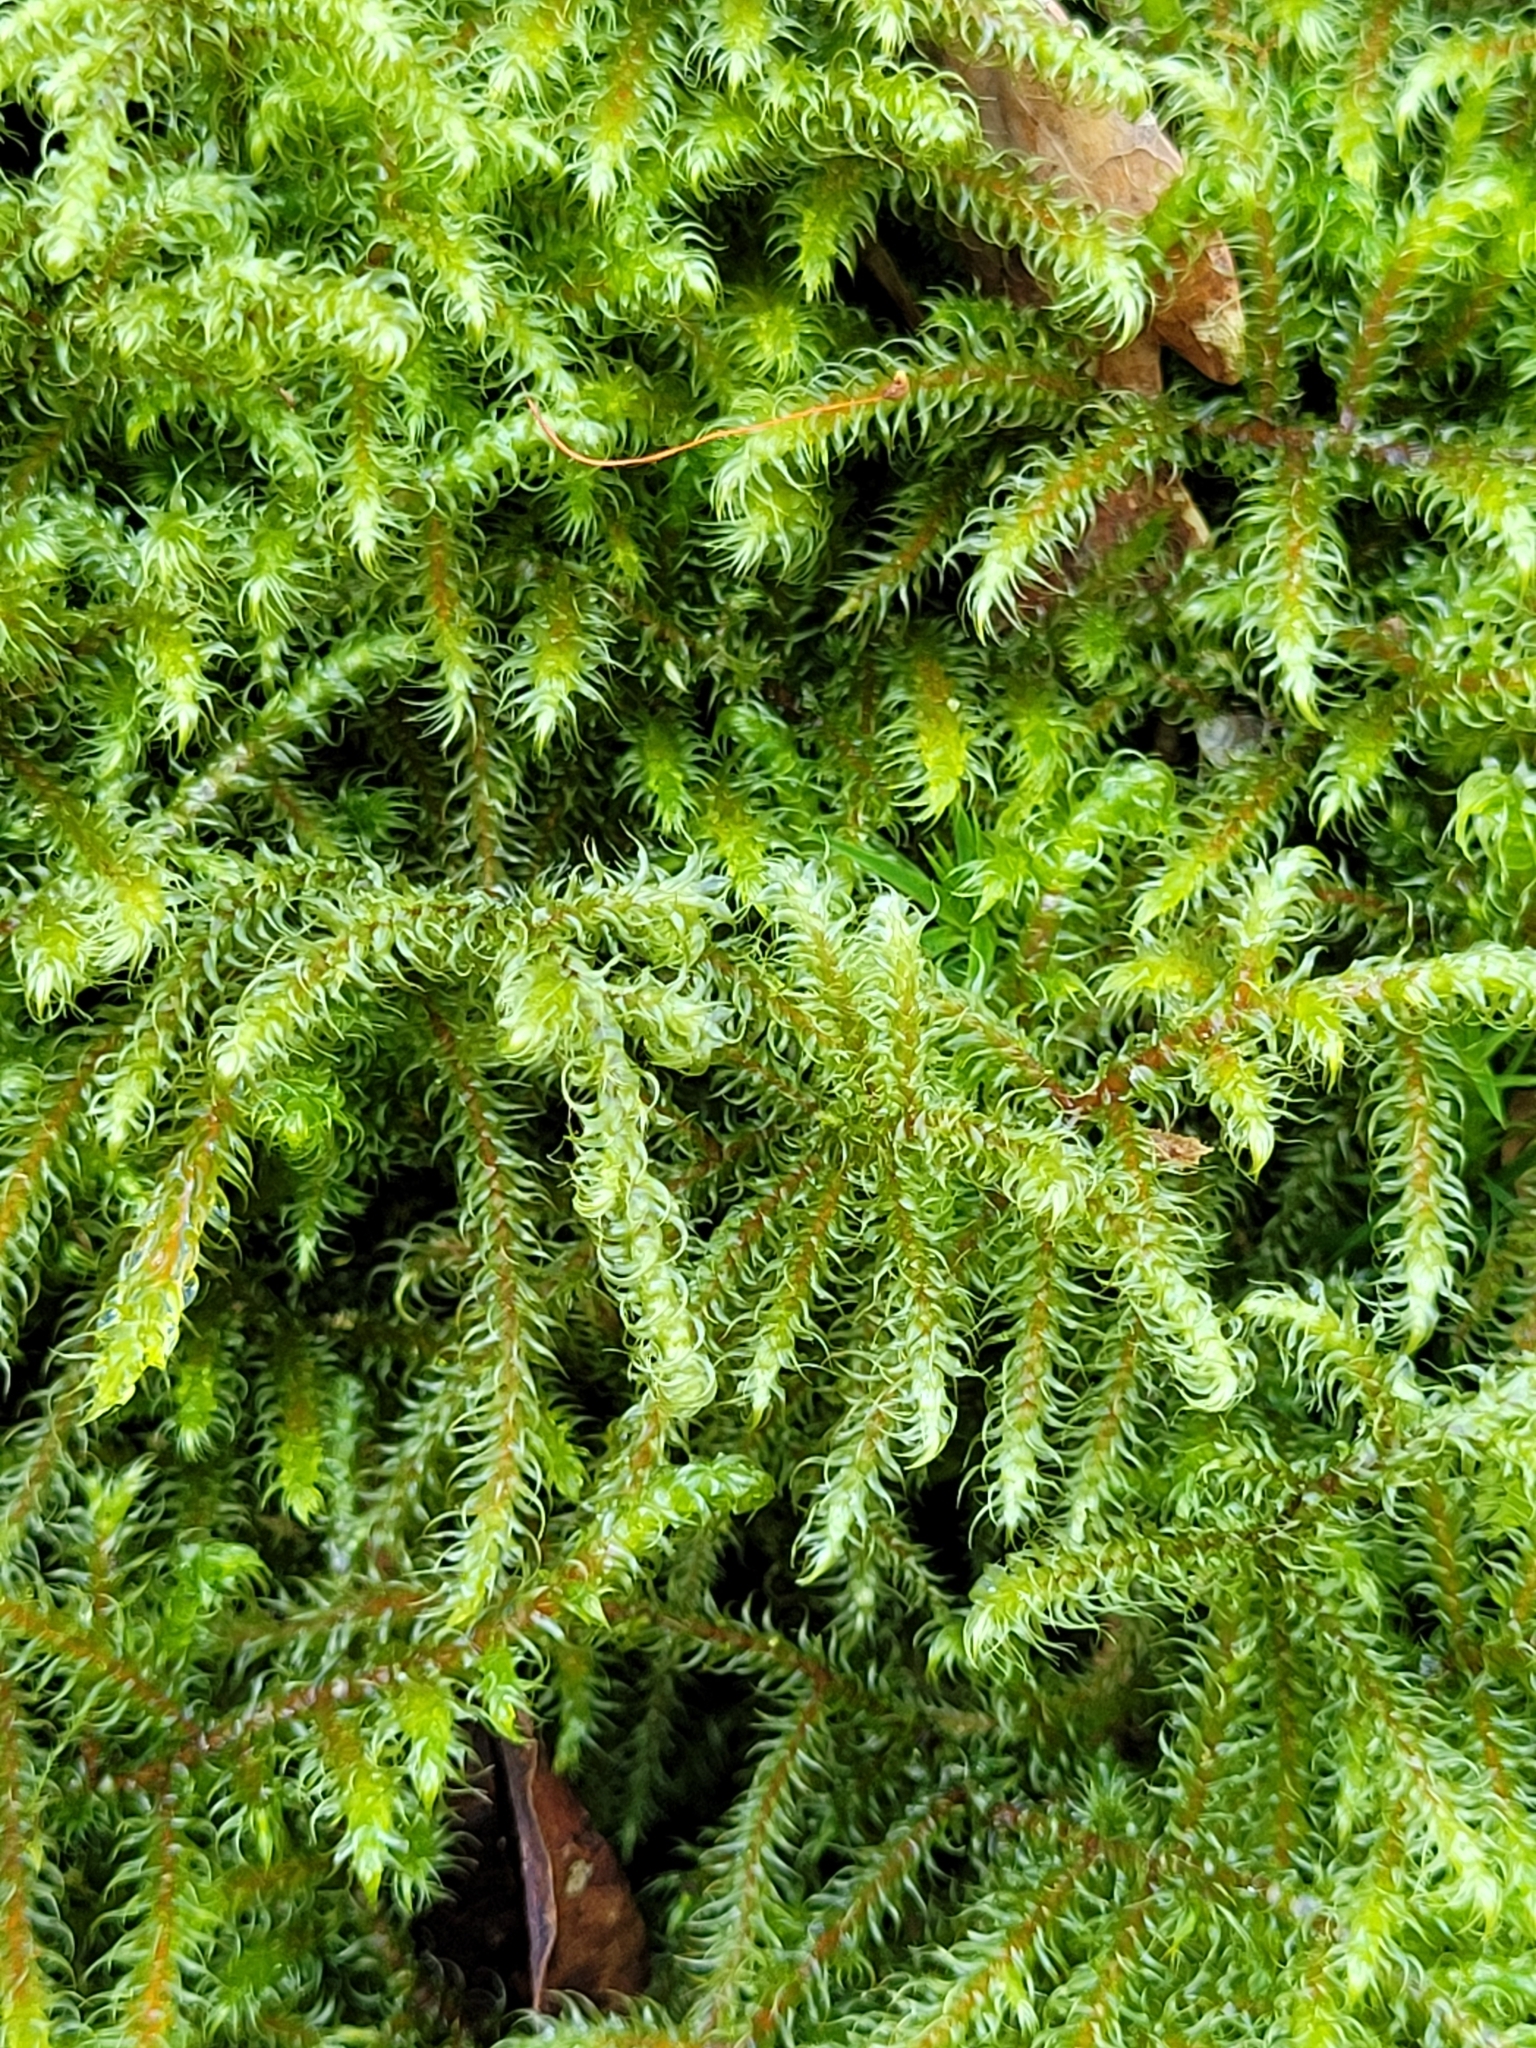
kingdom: Plantae
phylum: Bryophyta
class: Bryopsida
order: Hypnales
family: Hylocomiaceae
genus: Rhytidiadelphus
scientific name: Rhytidiadelphus loreus
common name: Lanky moss
